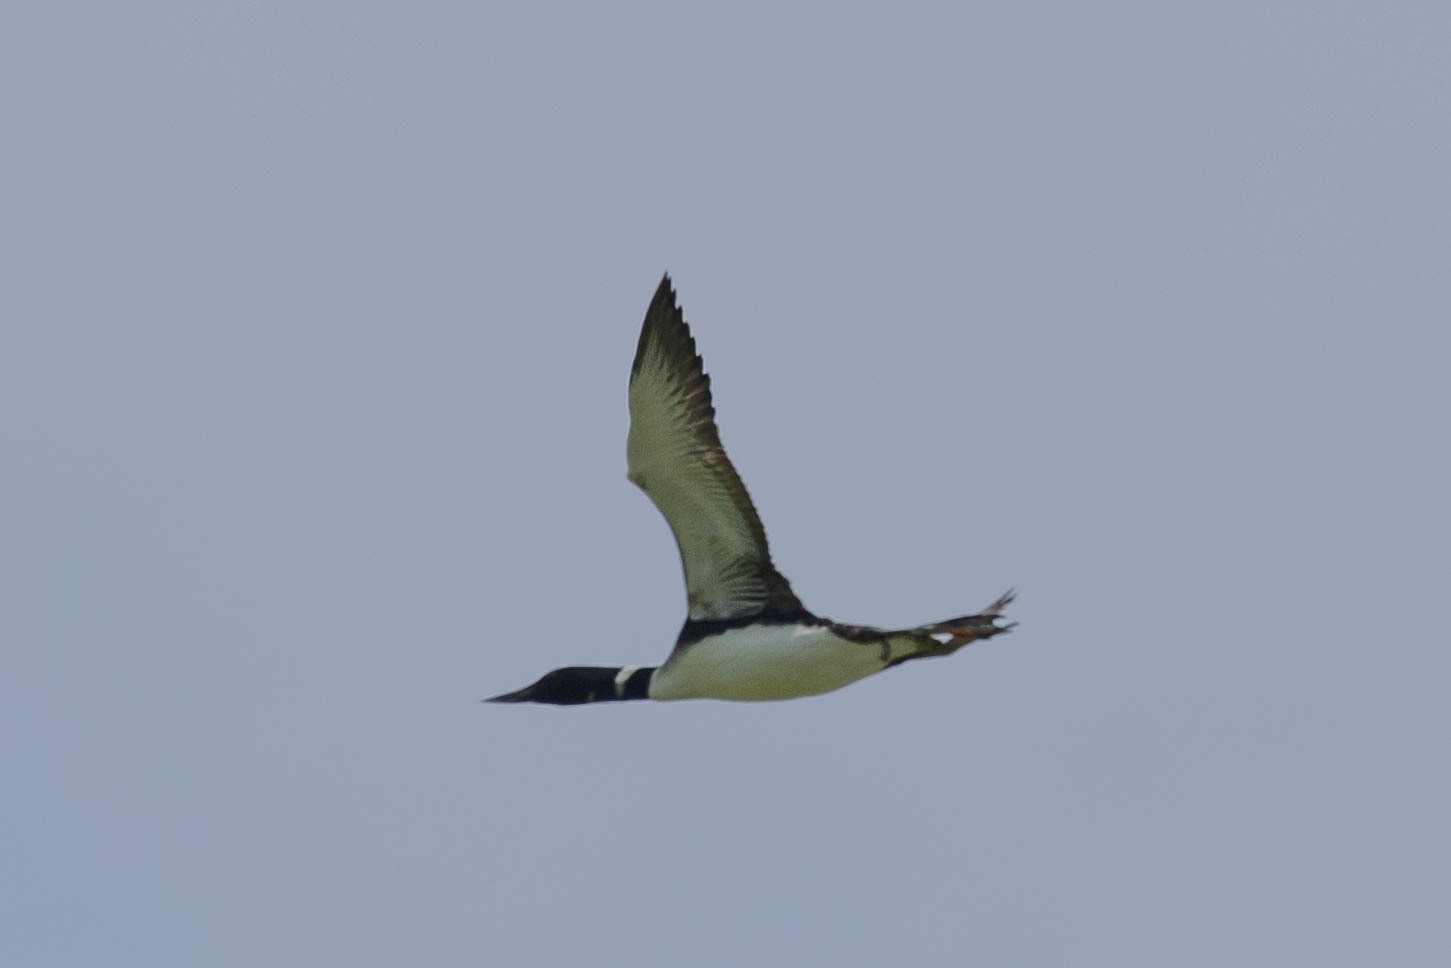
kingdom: Animalia
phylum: Chordata
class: Aves
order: Gaviiformes
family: Gaviidae
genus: Gavia
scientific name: Gavia immer
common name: Common loon
